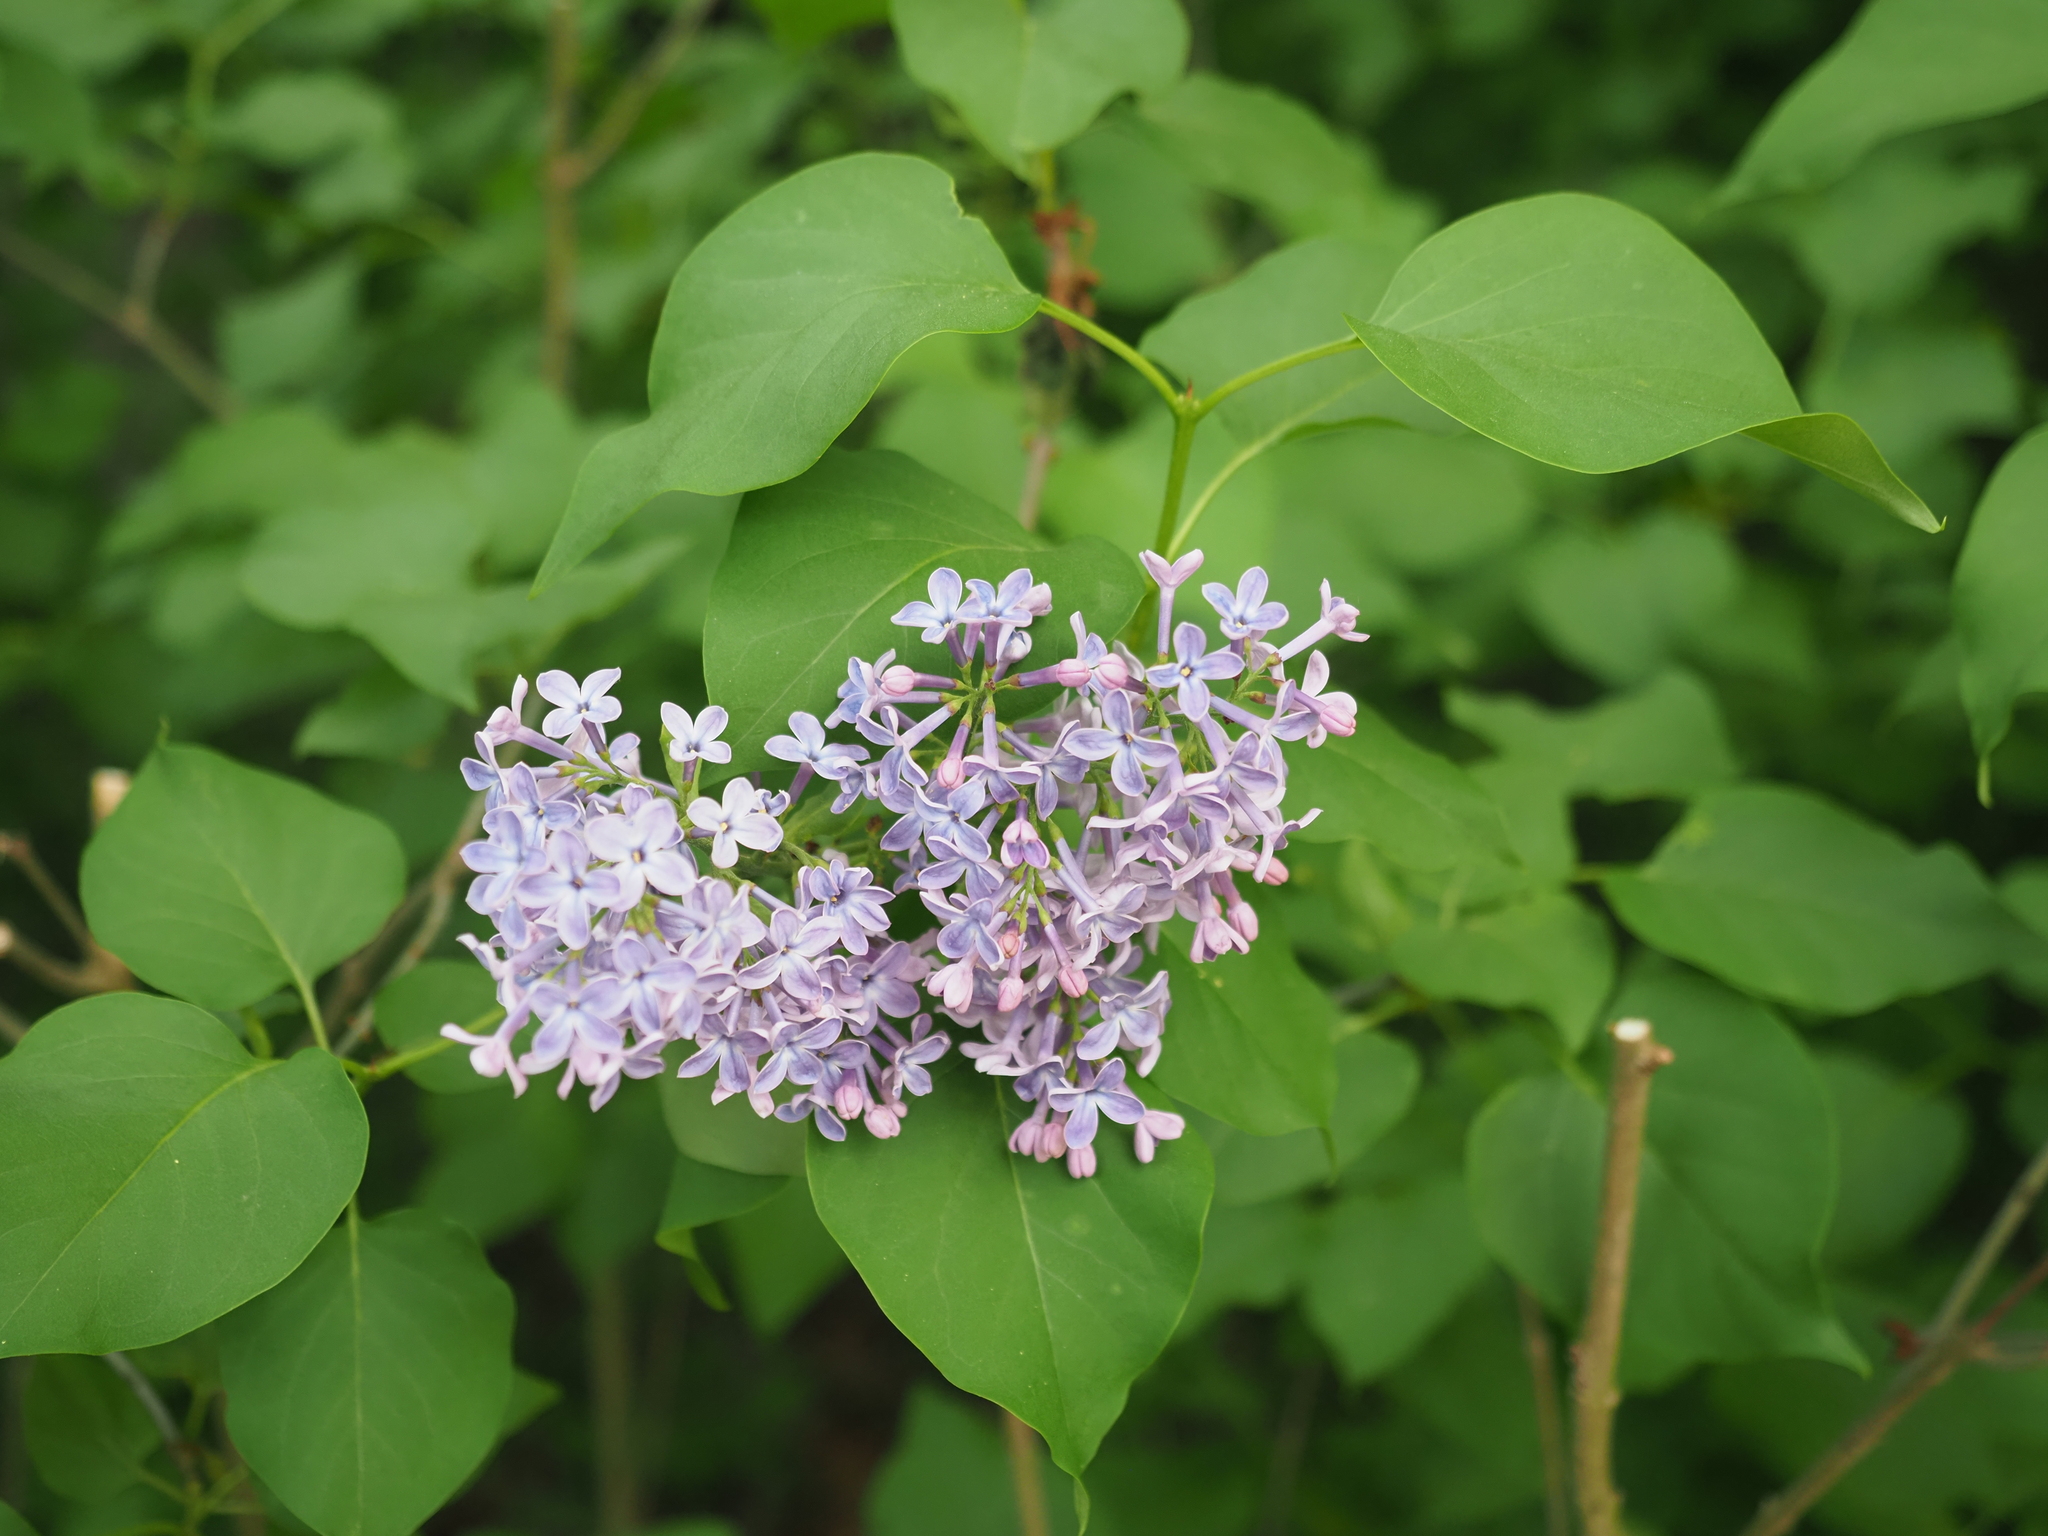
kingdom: Plantae
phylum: Tracheophyta
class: Magnoliopsida
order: Lamiales
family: Oleaceae
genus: Syringa
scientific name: Syringa vulgaris
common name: Common lilac
